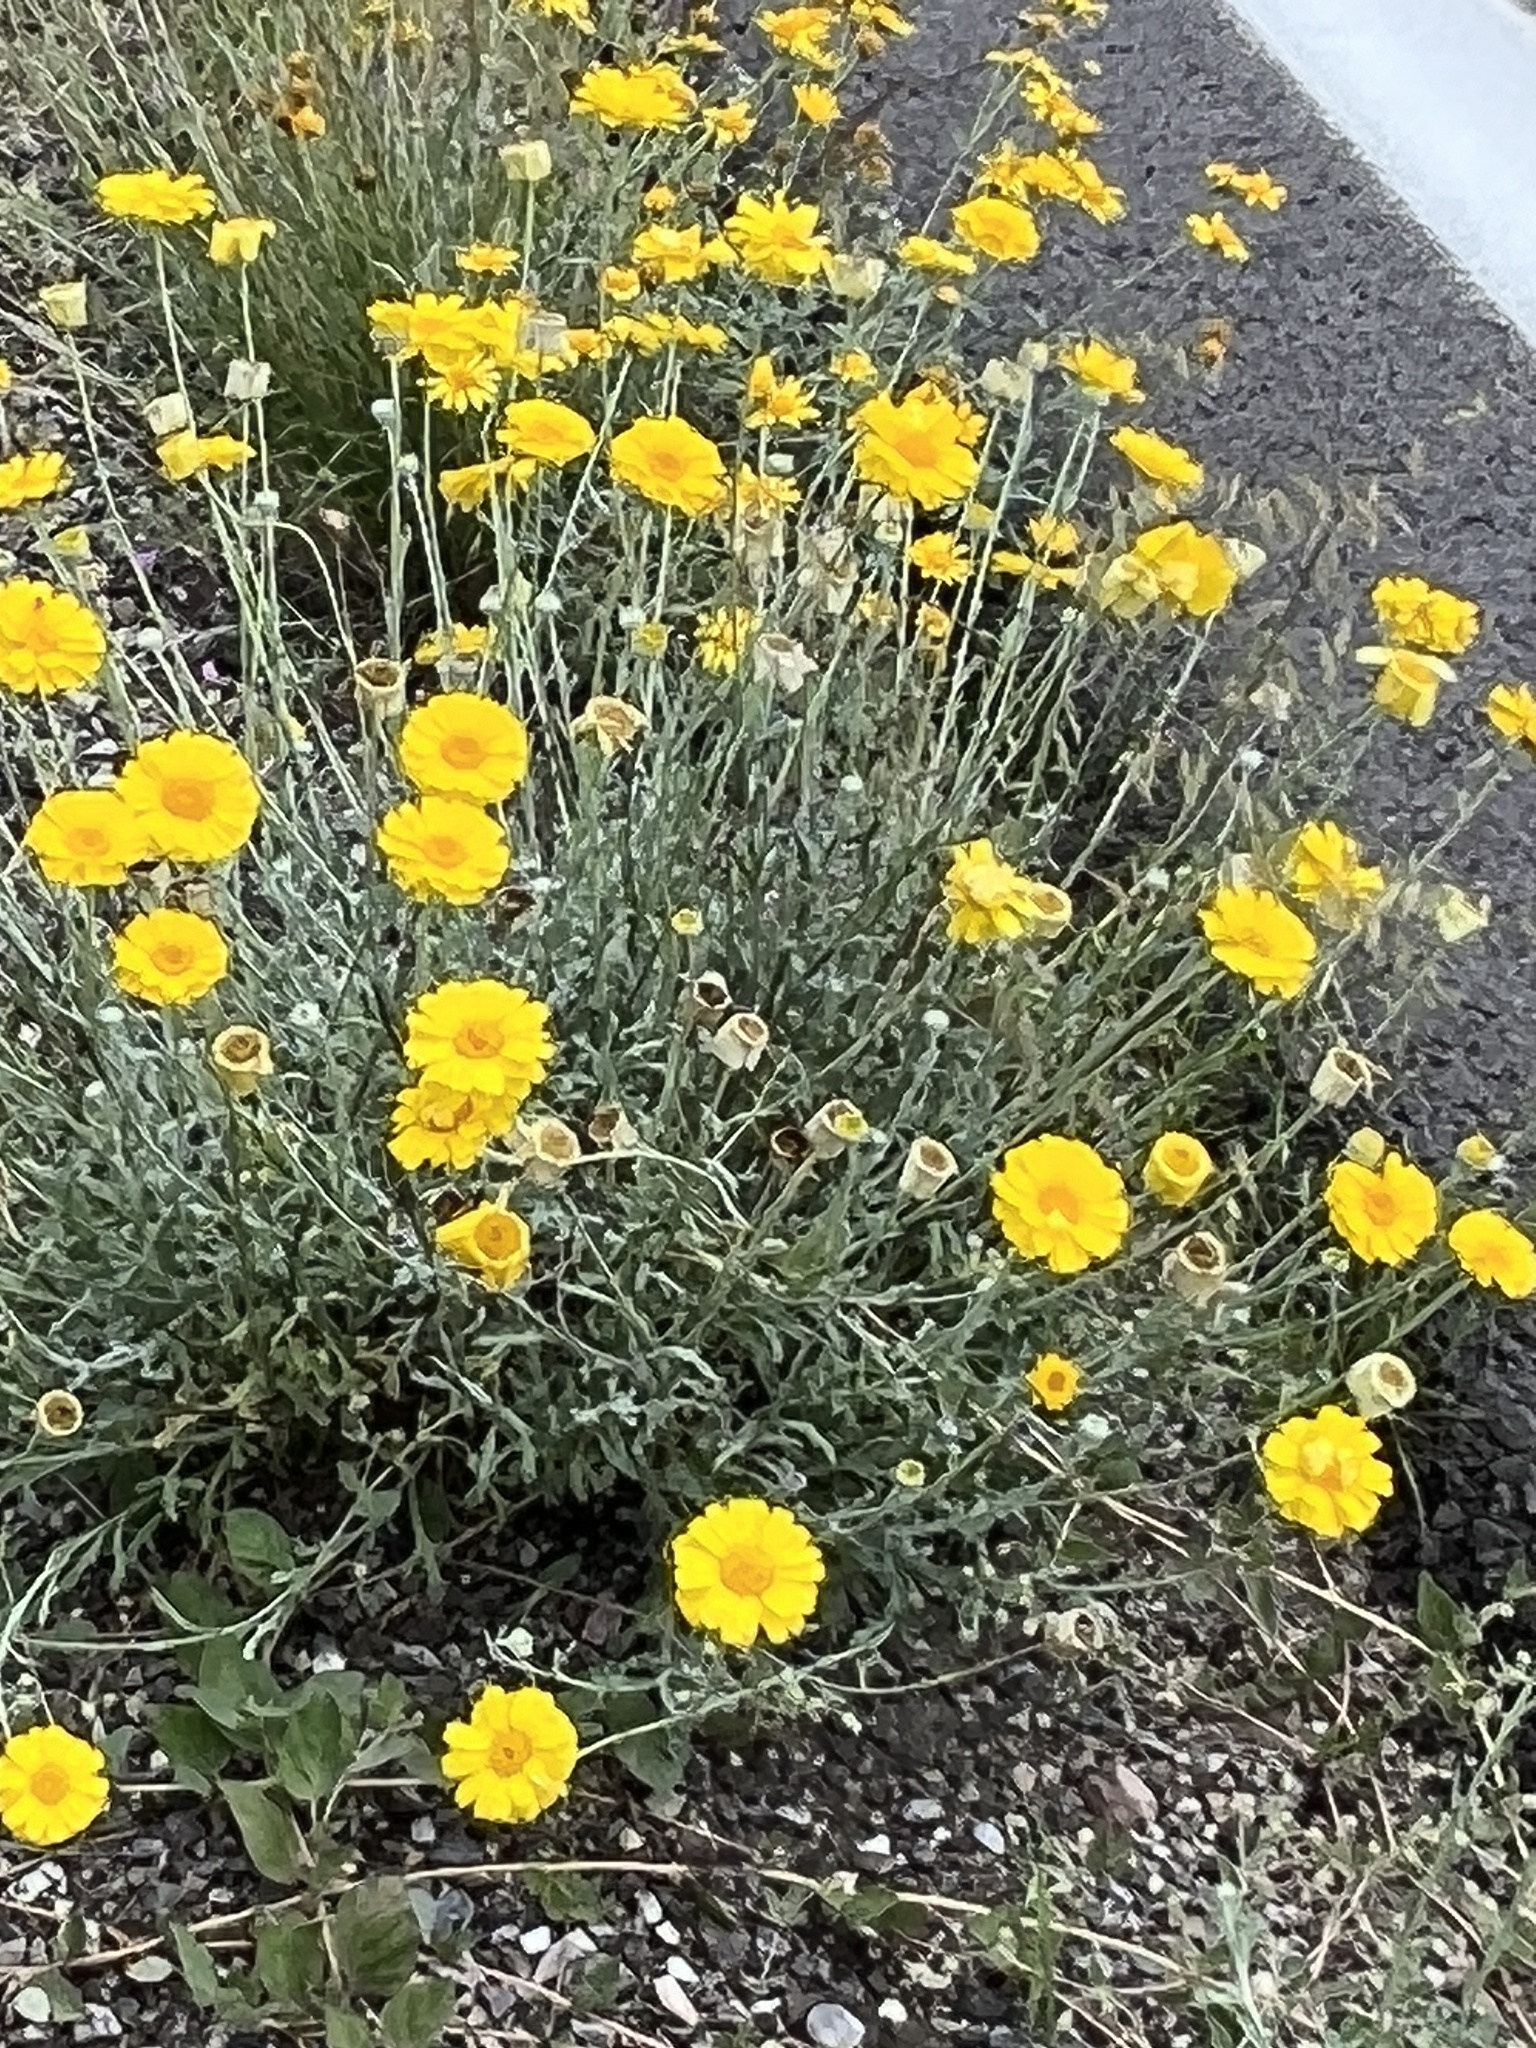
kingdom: Plantae
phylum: Tracheophyta
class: Magnoliopsida
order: Asterales
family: Asteraceae
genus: Baileya
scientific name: Baileya multiradiata
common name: Desert-marigold
